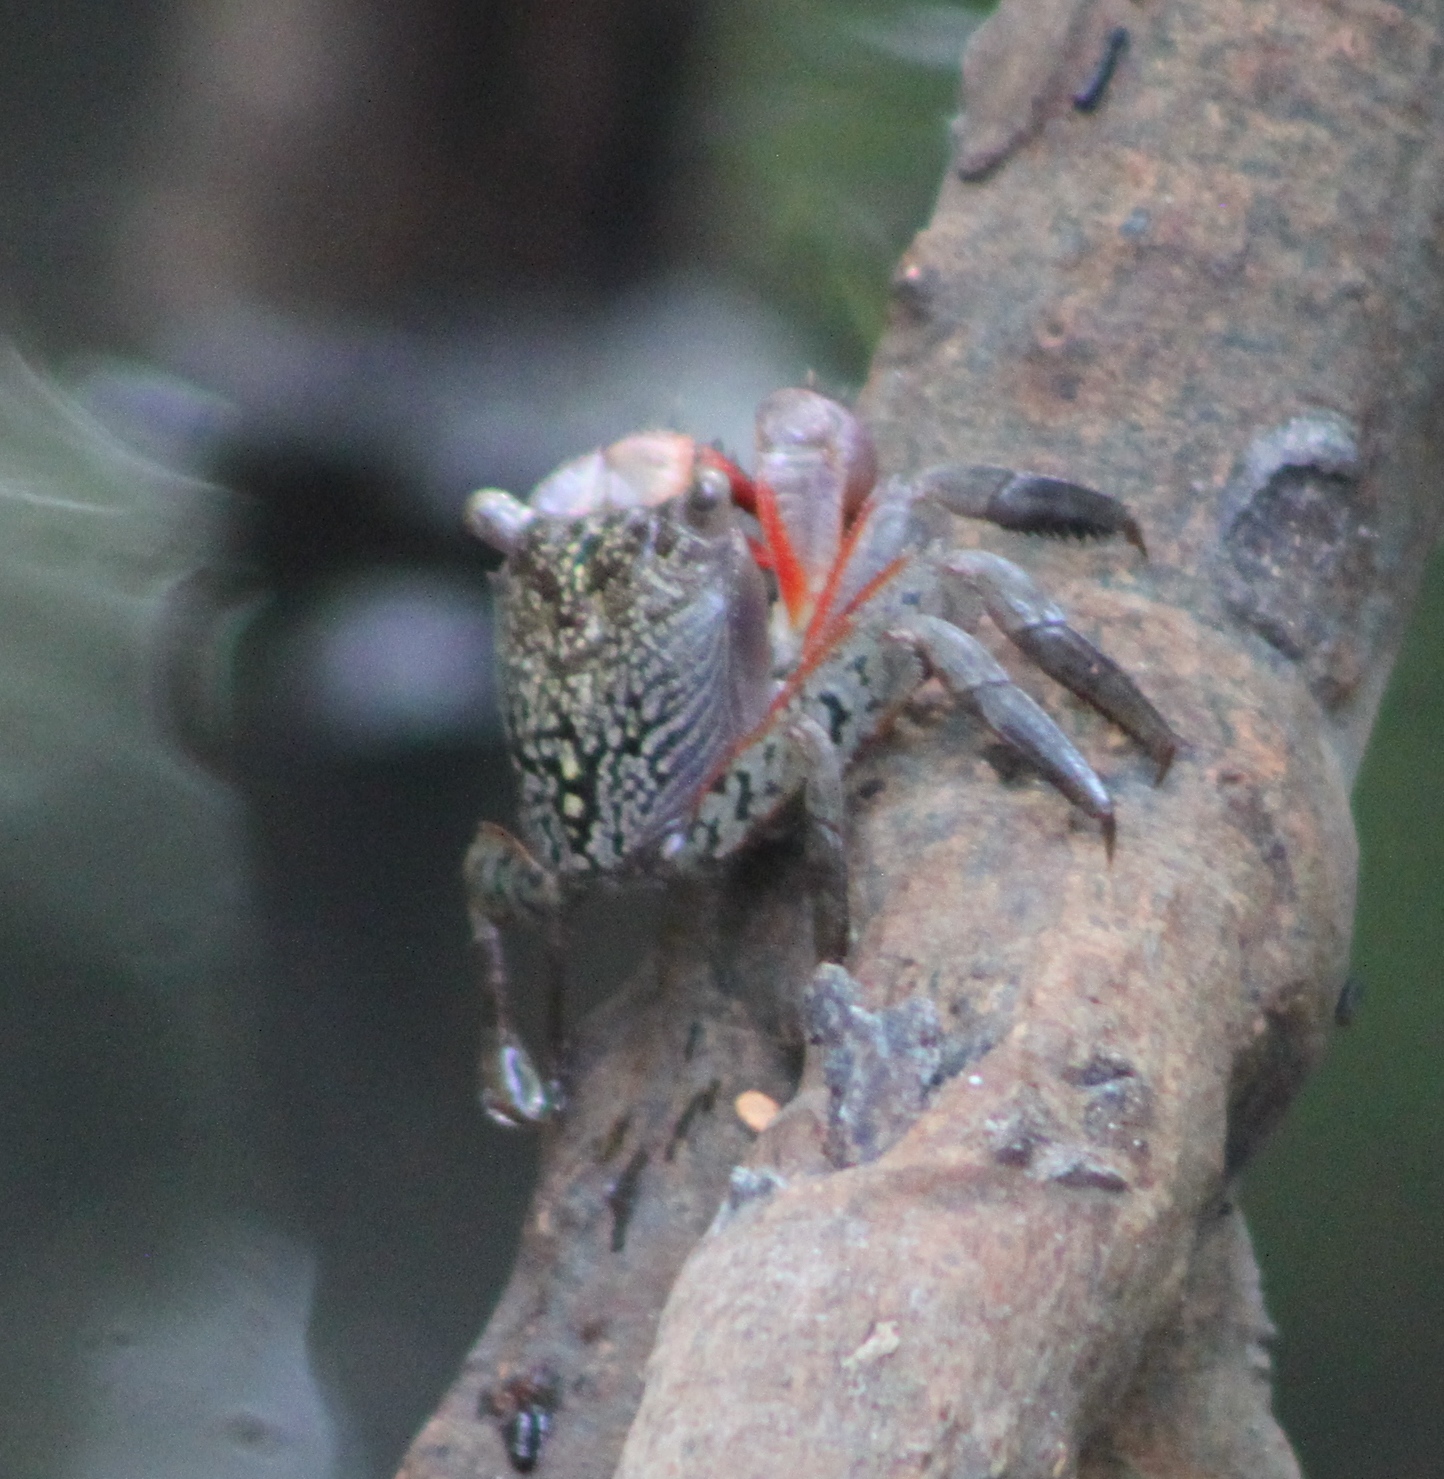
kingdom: Animalia
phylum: Arthropoda
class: Malacostraca
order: Decapoda
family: Sesarmidae
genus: Aratus
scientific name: Aratus pisonii
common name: Mangrove crab
